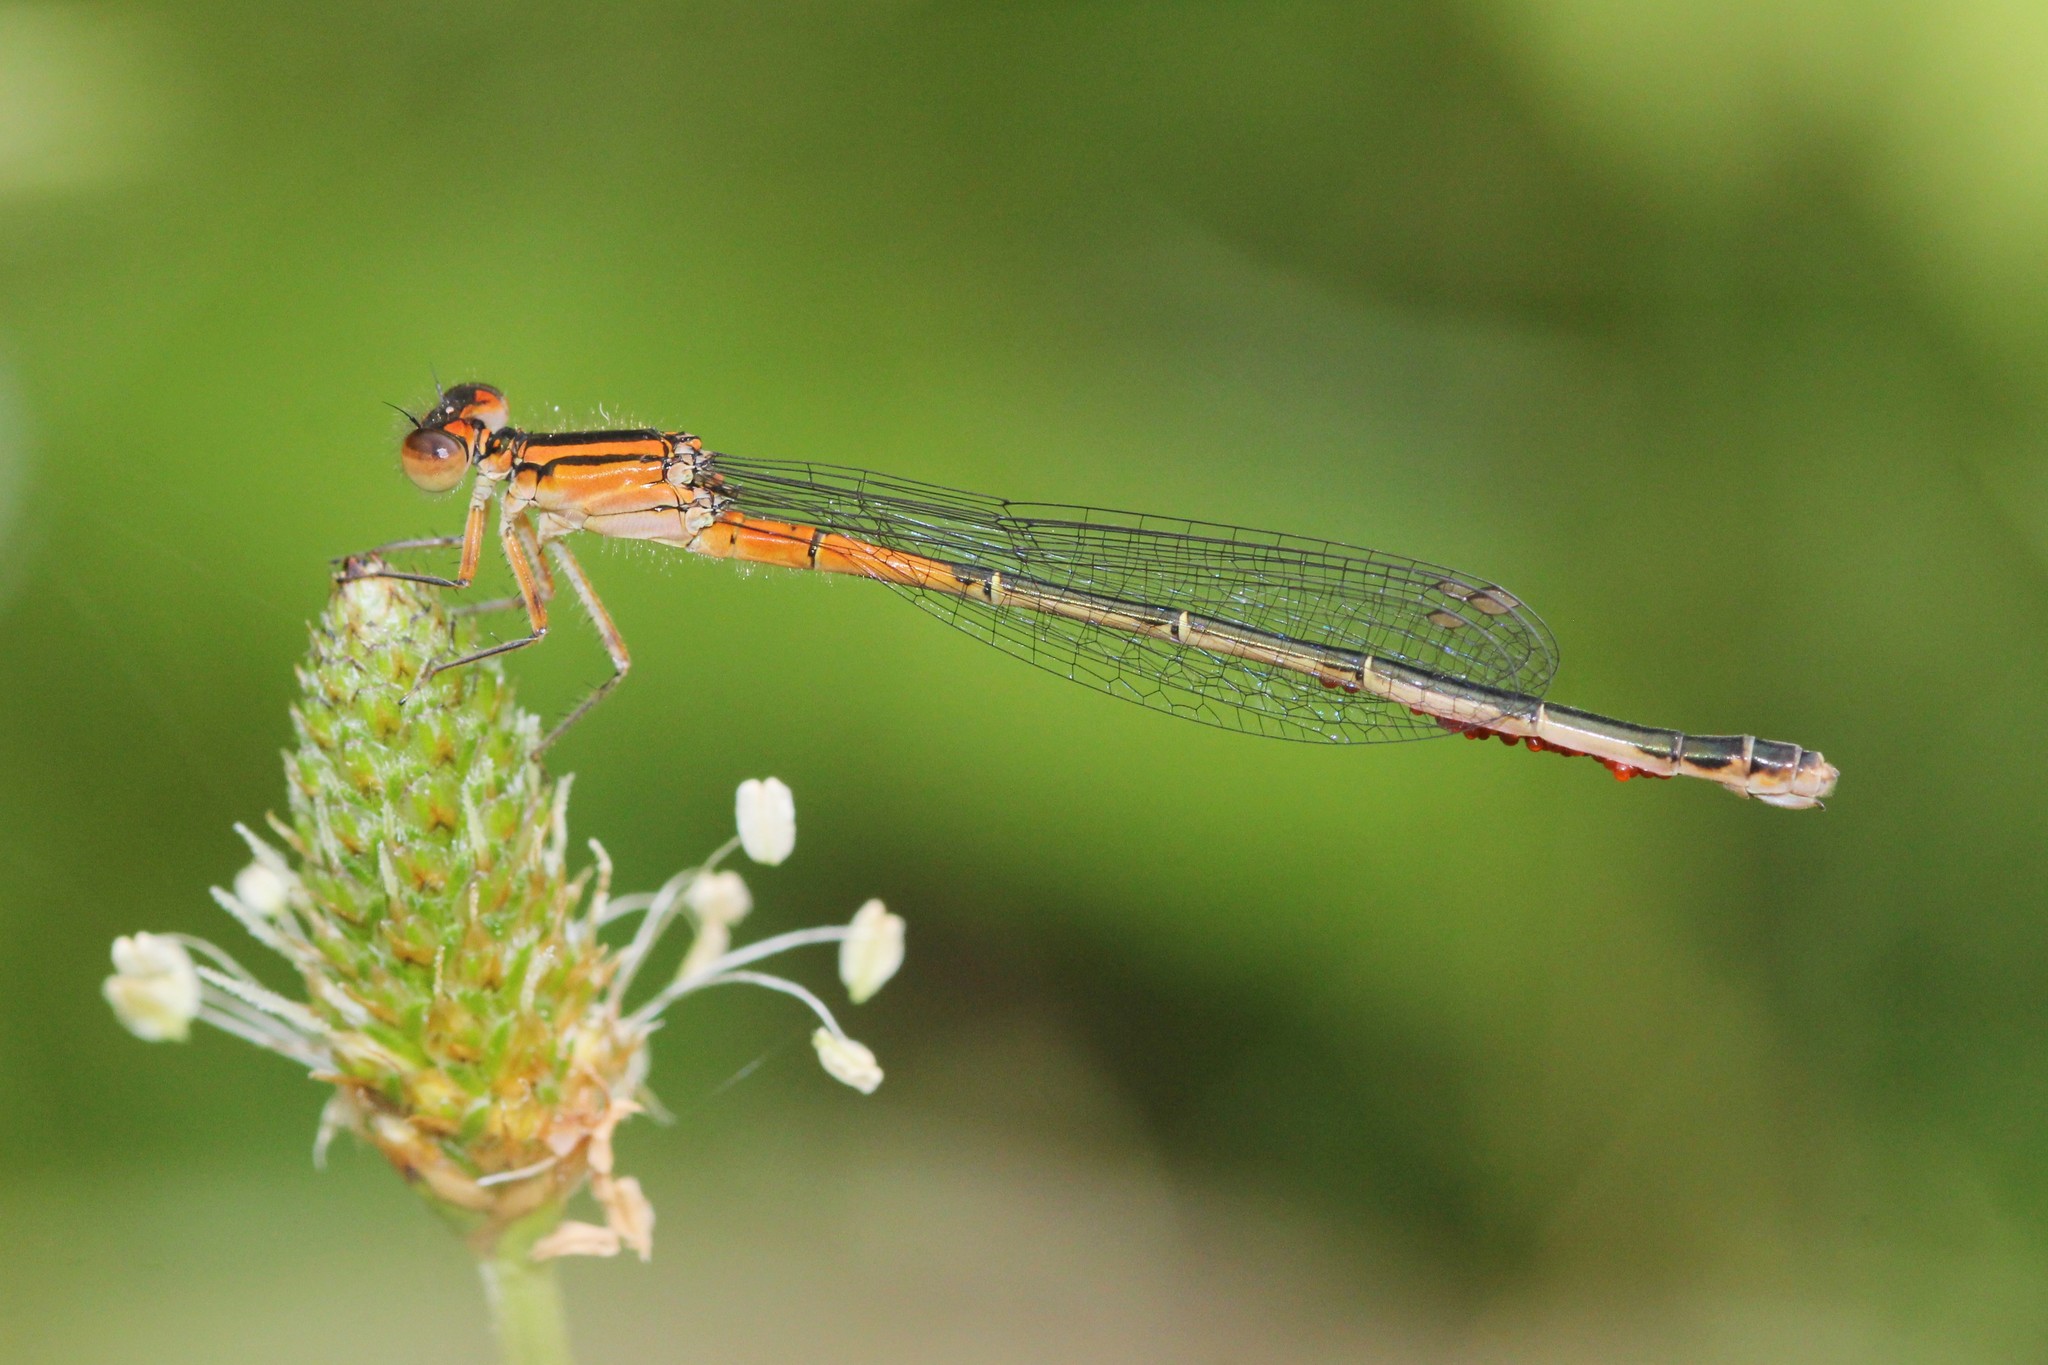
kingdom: Animalia
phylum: Arthropoda
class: Insecta
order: Odonata
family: Coenagrionidae
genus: Ischnura
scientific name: Ischnura verticalis
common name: Eastern forktail
